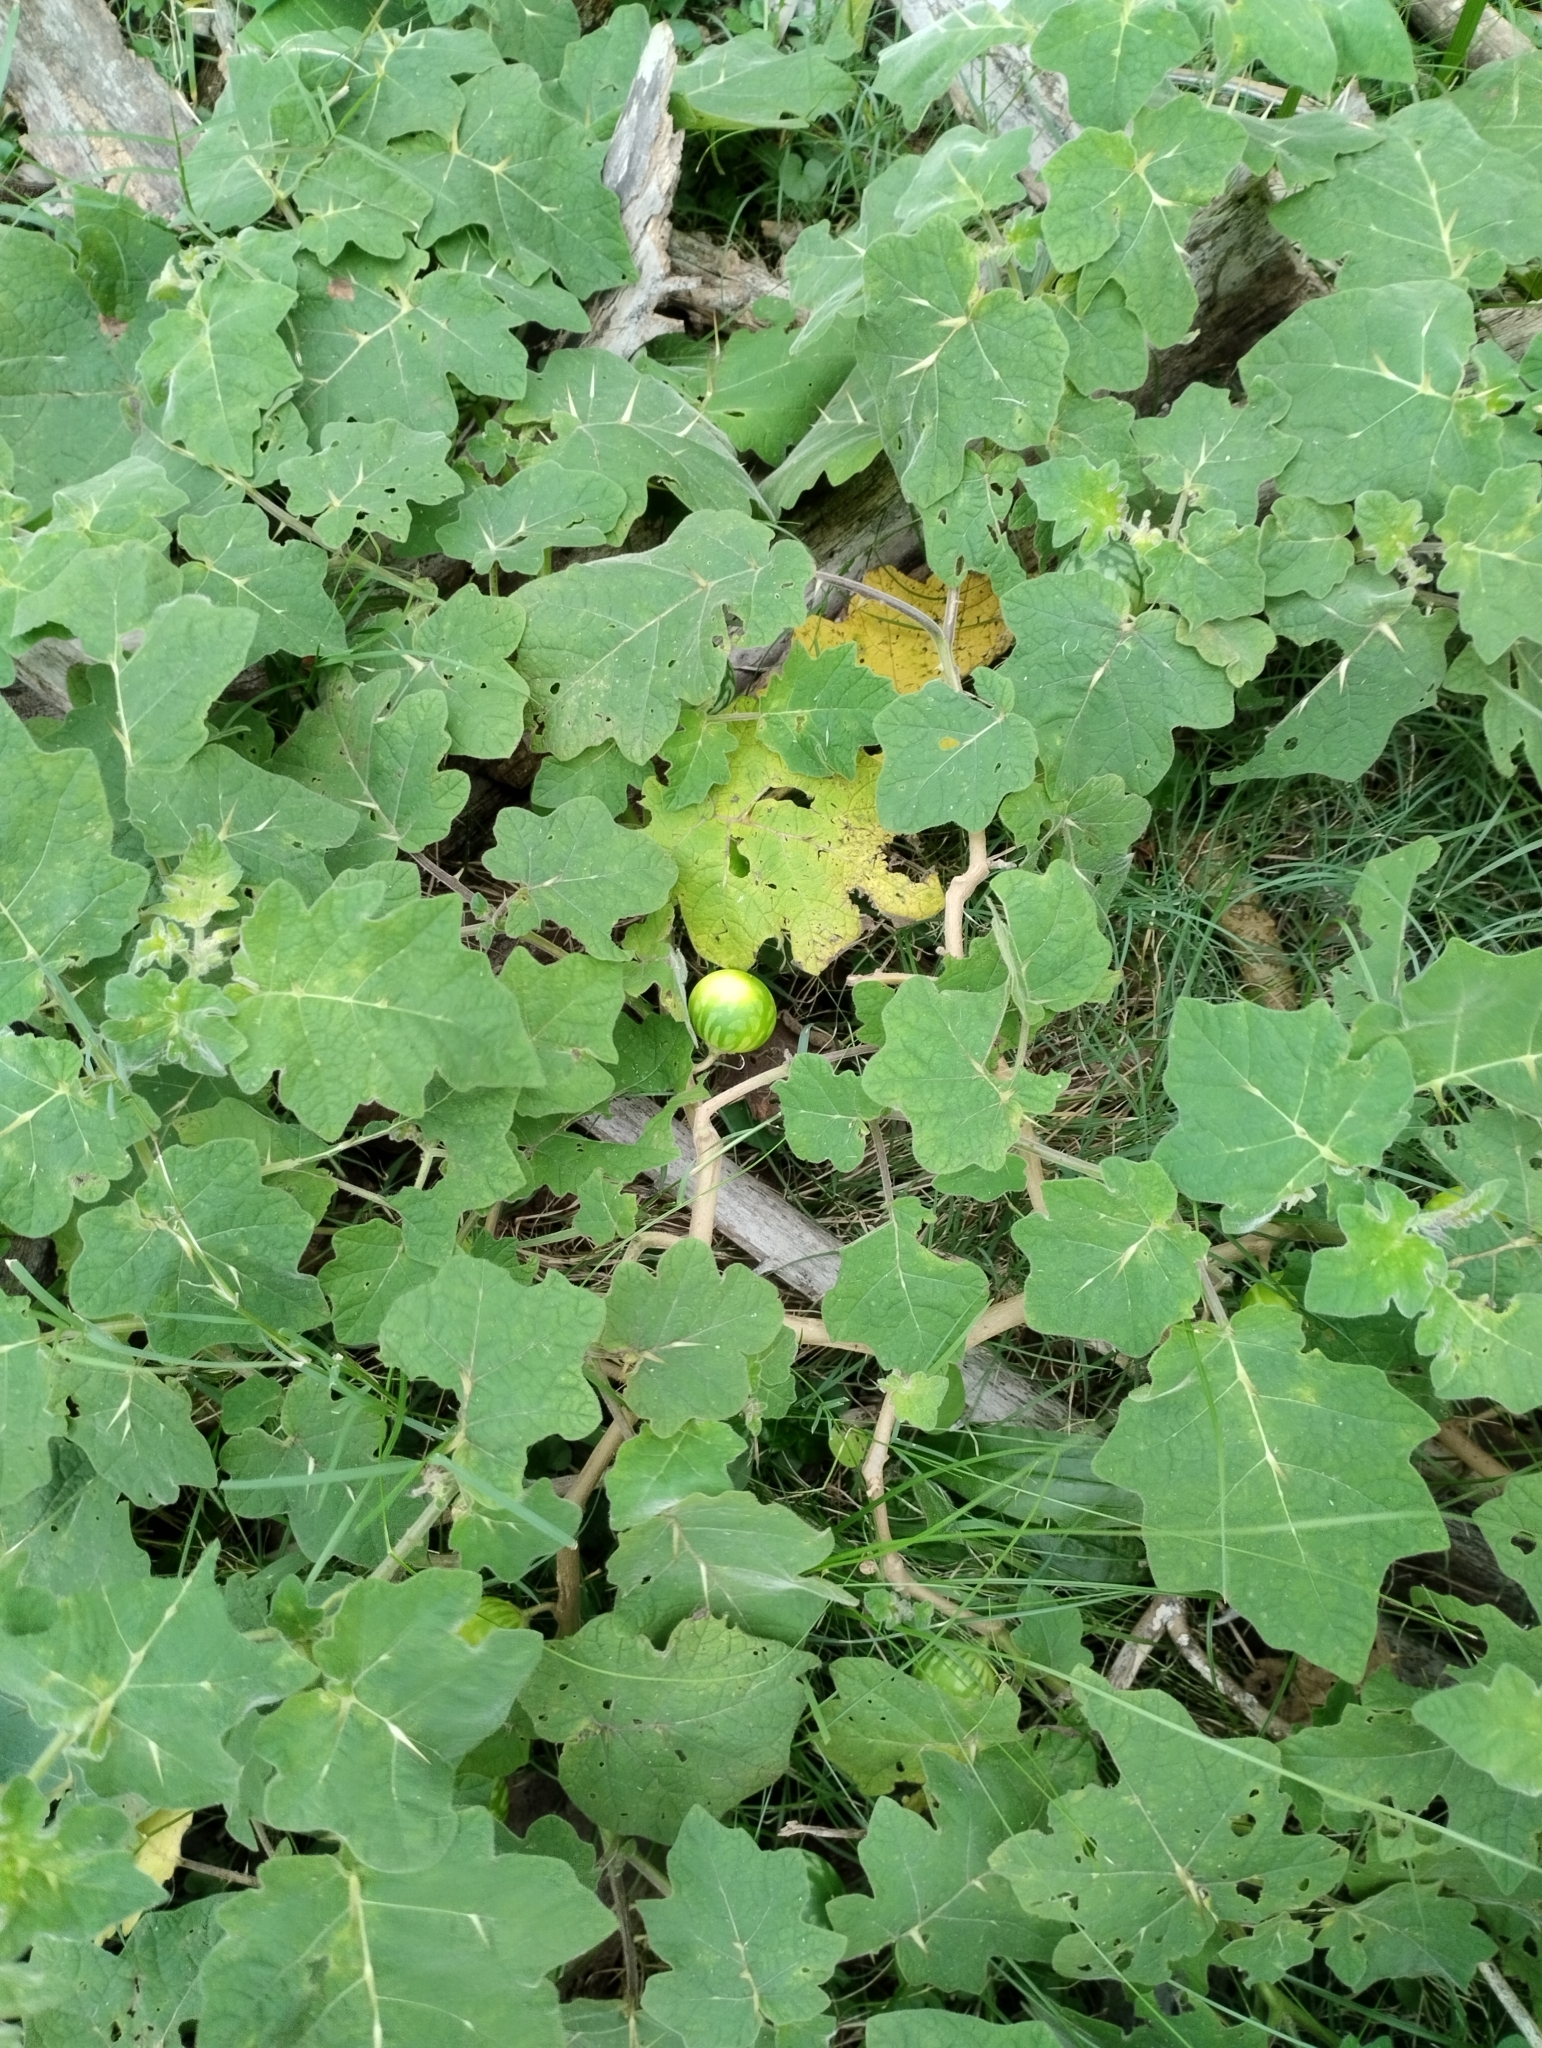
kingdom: Plantae
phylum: Tracheophyta
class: Magnoliopsida
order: Solanales
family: Solanaceae
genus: Solanum
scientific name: Solanum viarum
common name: Tropical soda apple
